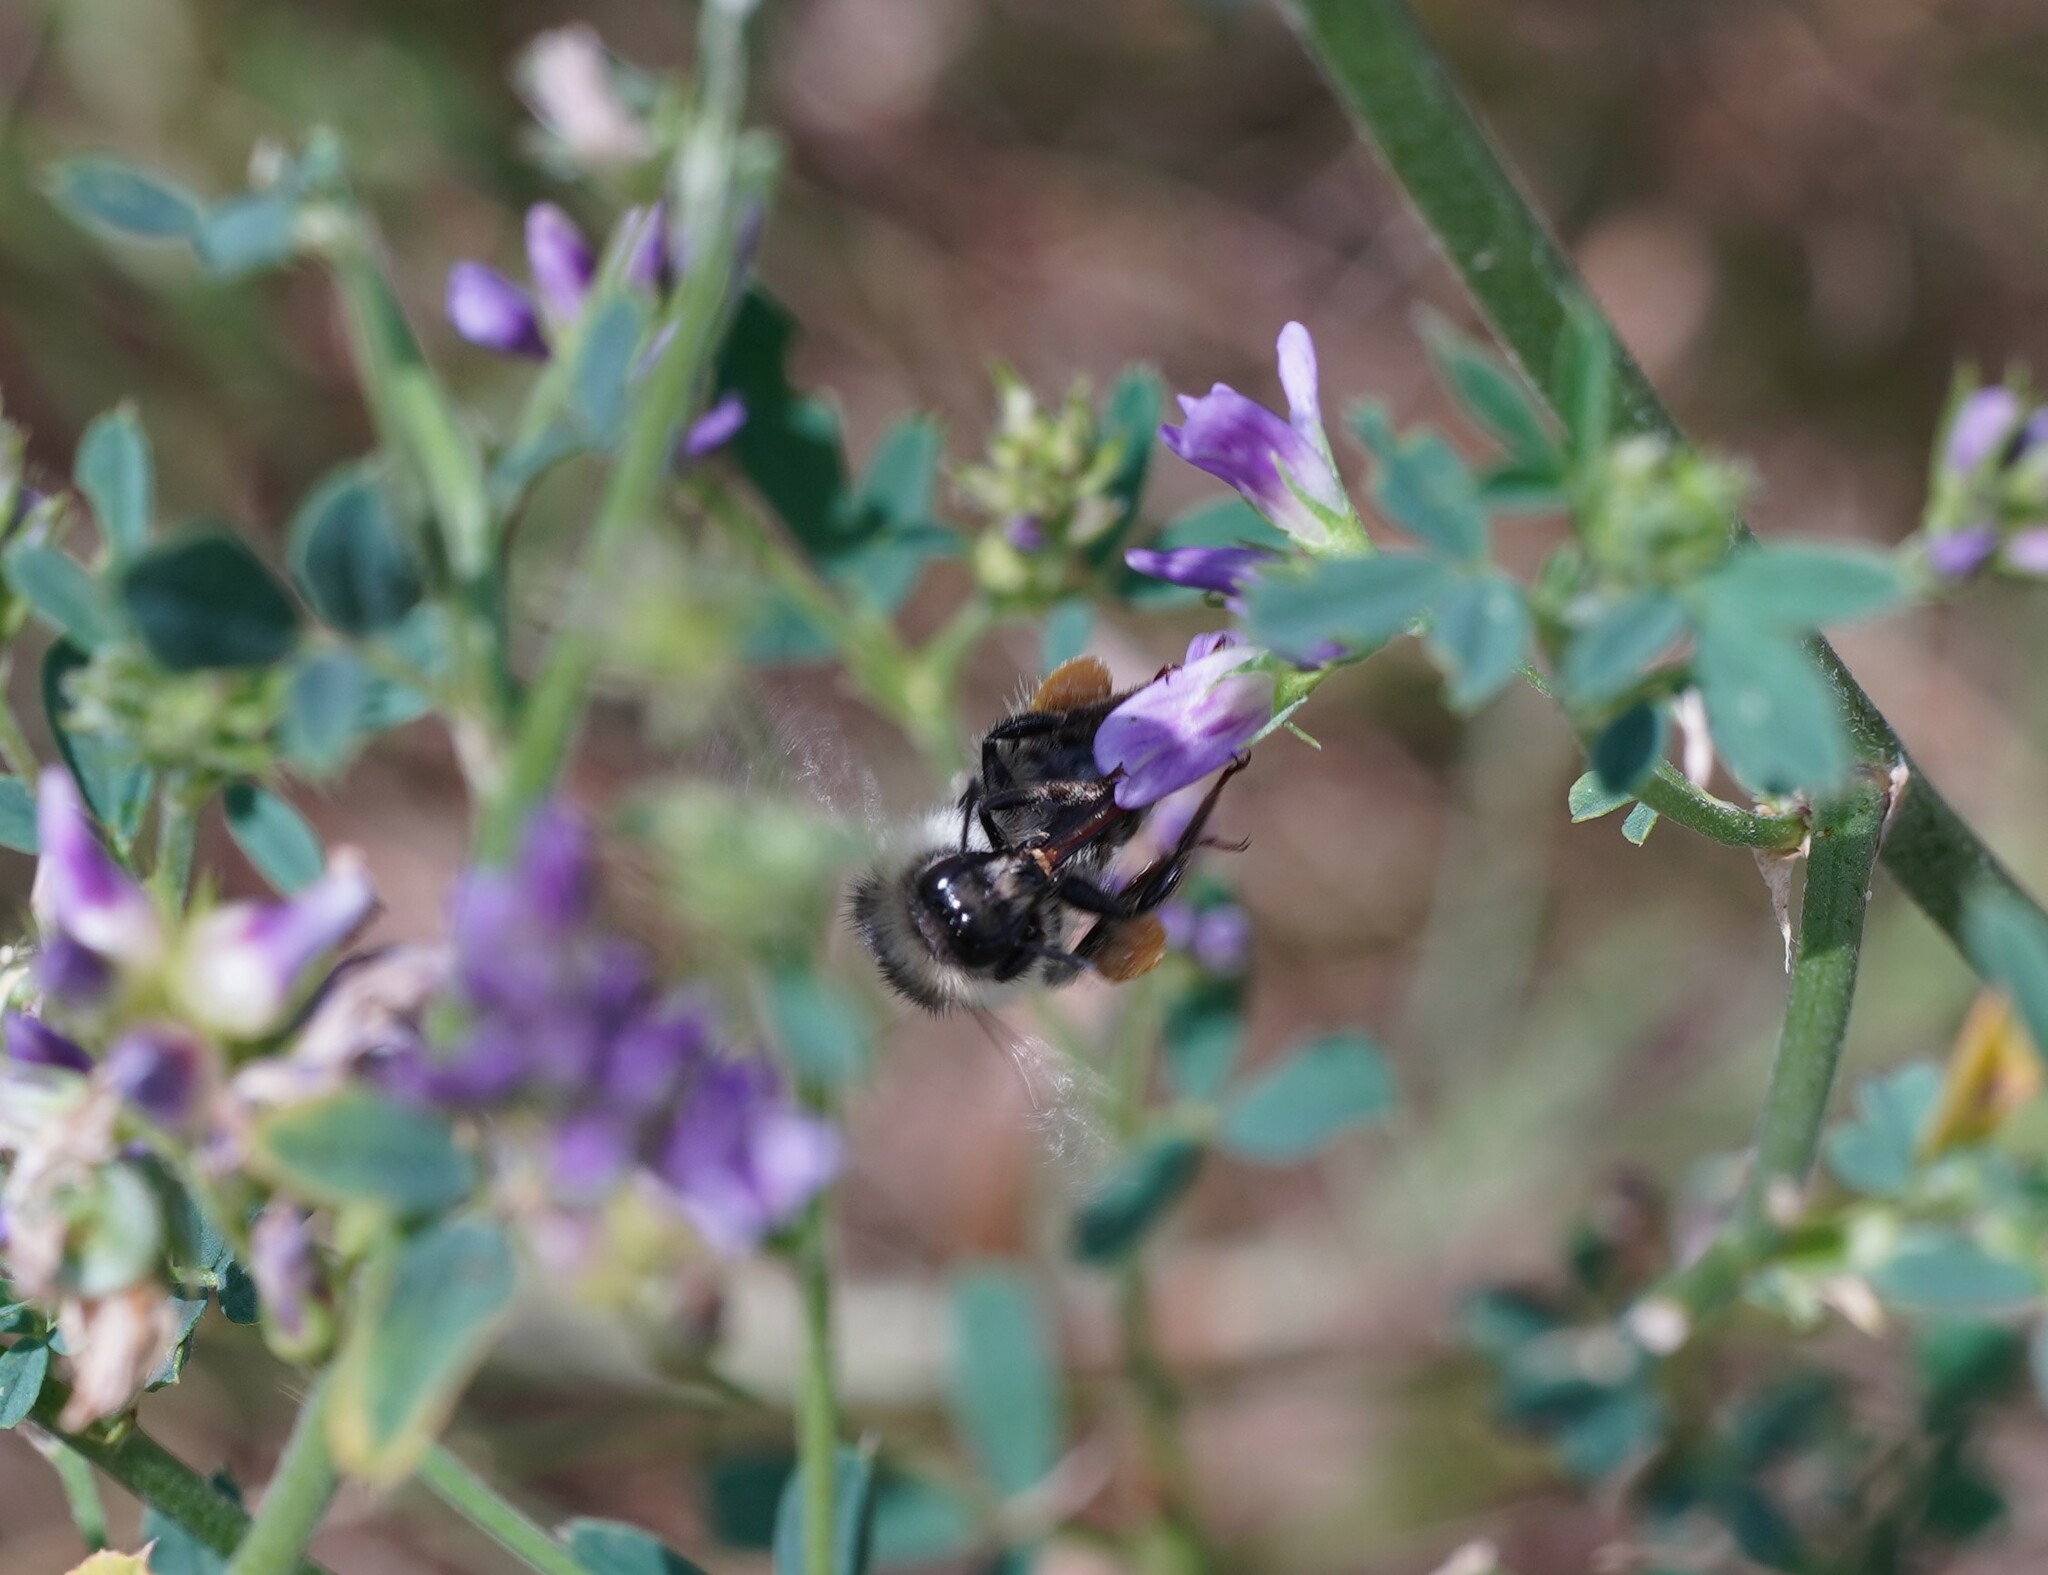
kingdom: Animalia
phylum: Arthropoda
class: Insecta
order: Hymenoptera
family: Apidae
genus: Bombus
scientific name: Bombus sylvarum
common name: Shrill carder bee
